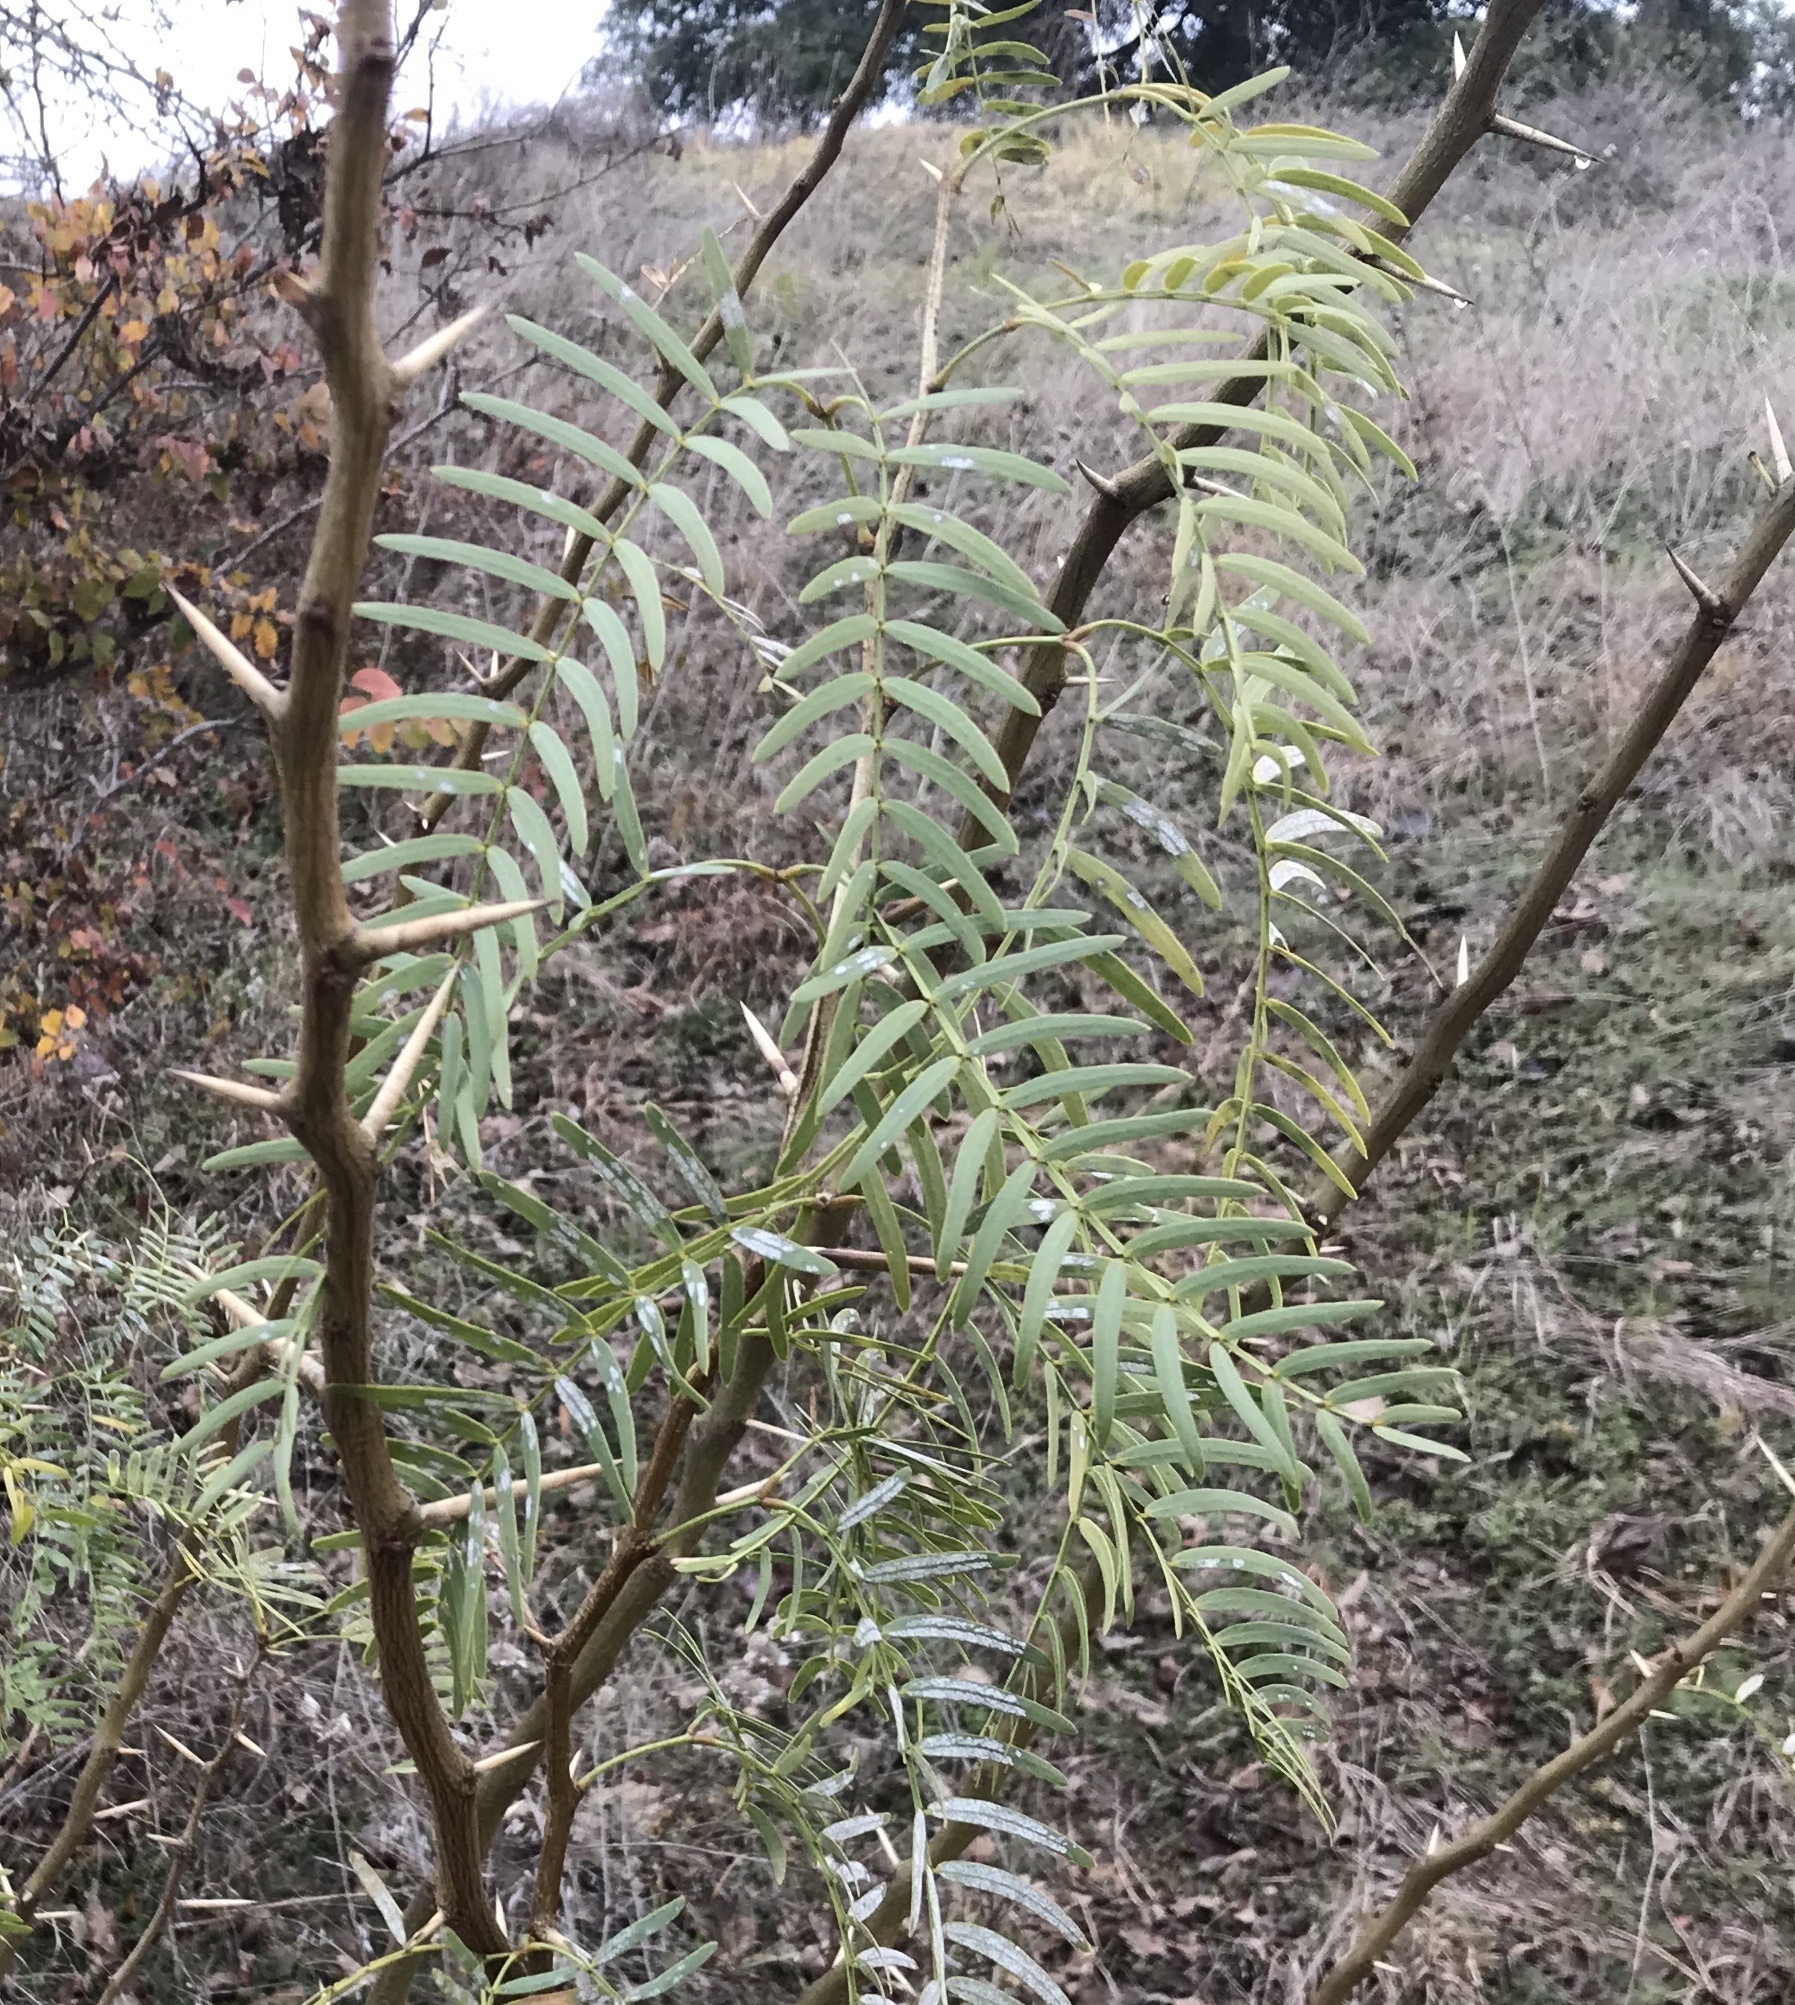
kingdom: Plantae
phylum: Tracheophyta
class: Magnoliopsida
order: Fabales
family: Fabaceae
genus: Prosopis
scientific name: Prosopis glandulosa
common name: Honey mesquite
